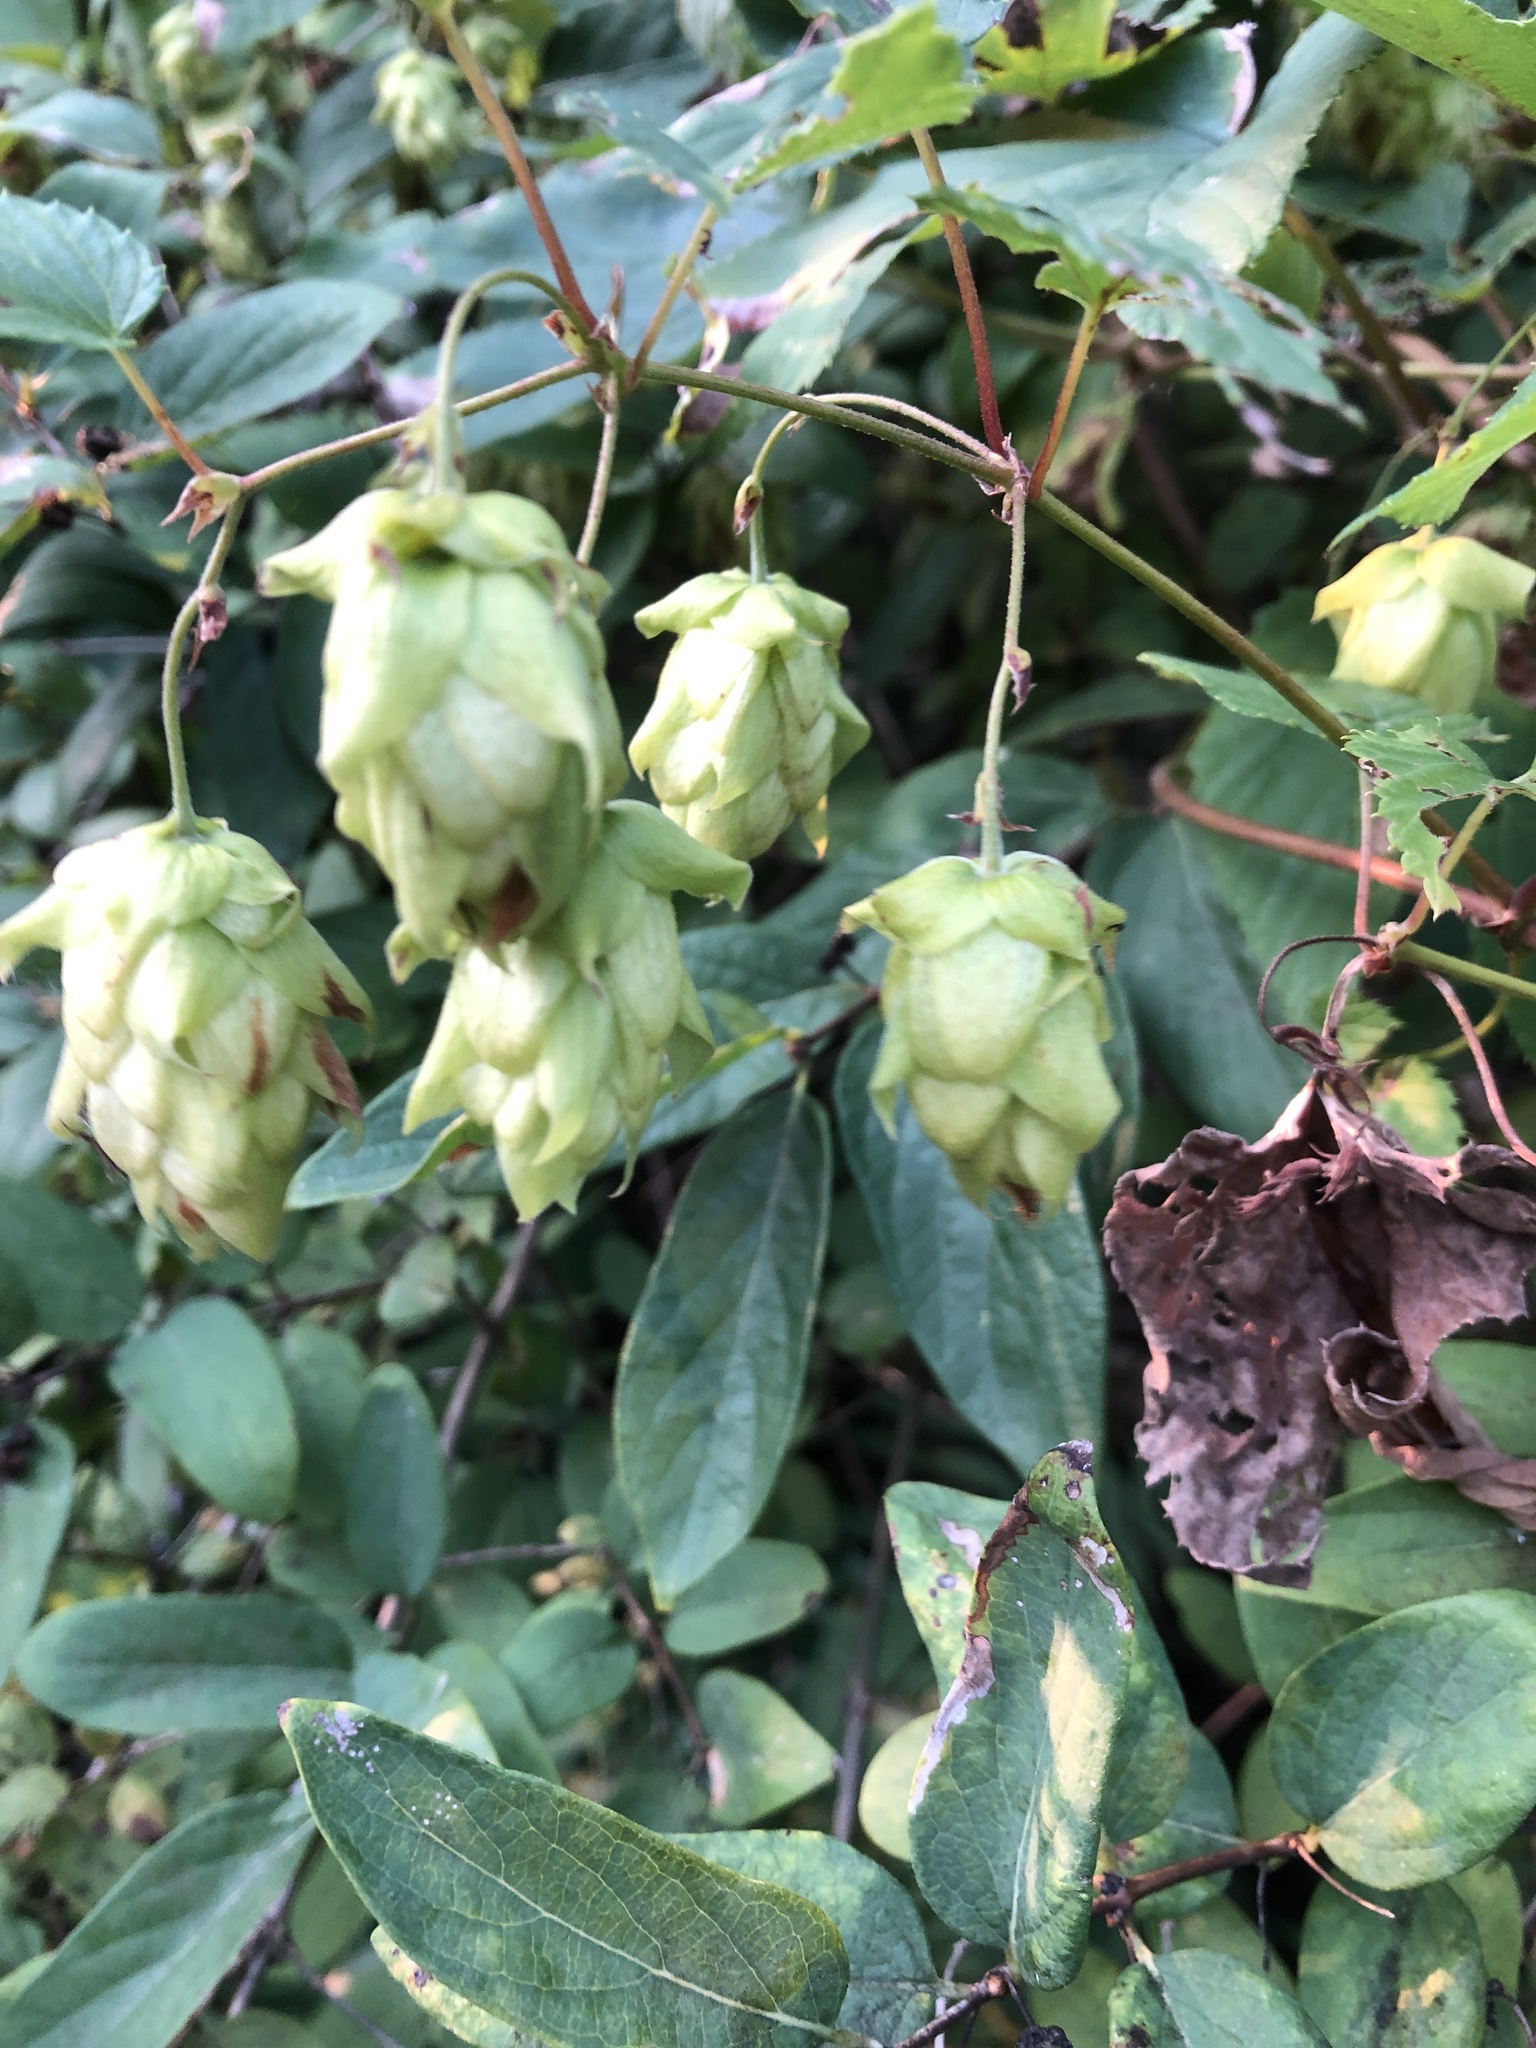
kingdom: Plantae
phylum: Tracheophyta
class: Magnoliopsida
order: Rosales
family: Cannabaceae
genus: Humulus
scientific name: Humulus lupulus
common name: Hop
